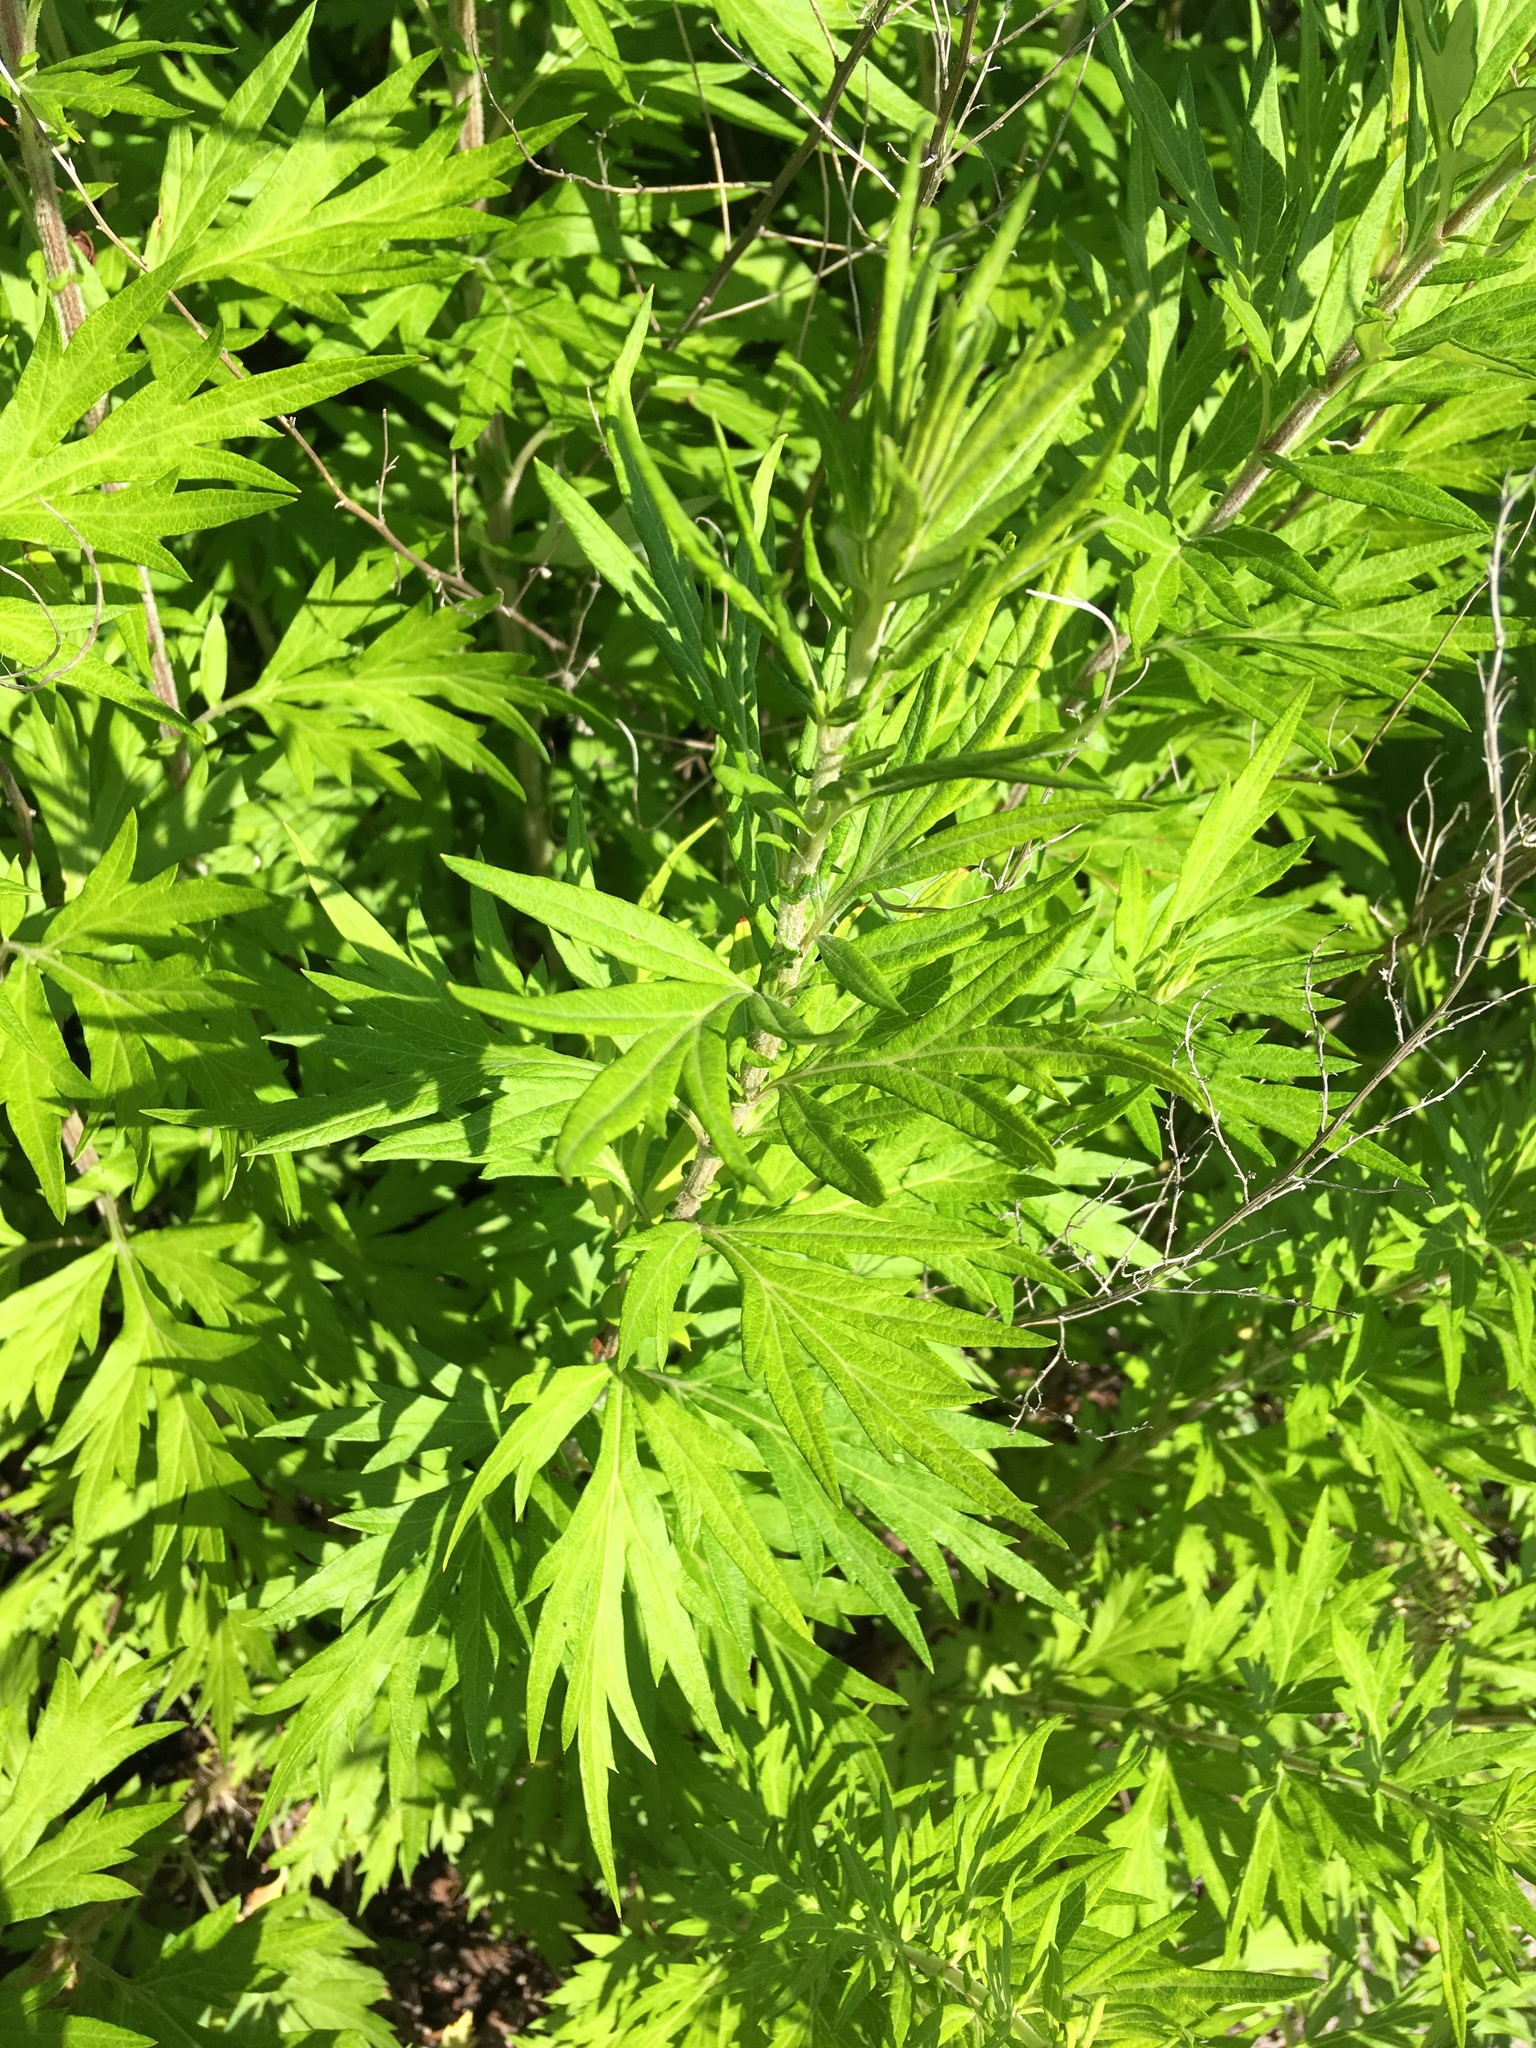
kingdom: Plantae
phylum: Tracheophyta
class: Magnoliopsida
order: Asterales
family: Asteraceae
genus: Artemisia
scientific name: Artemisia vulgaris
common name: Mugwort
